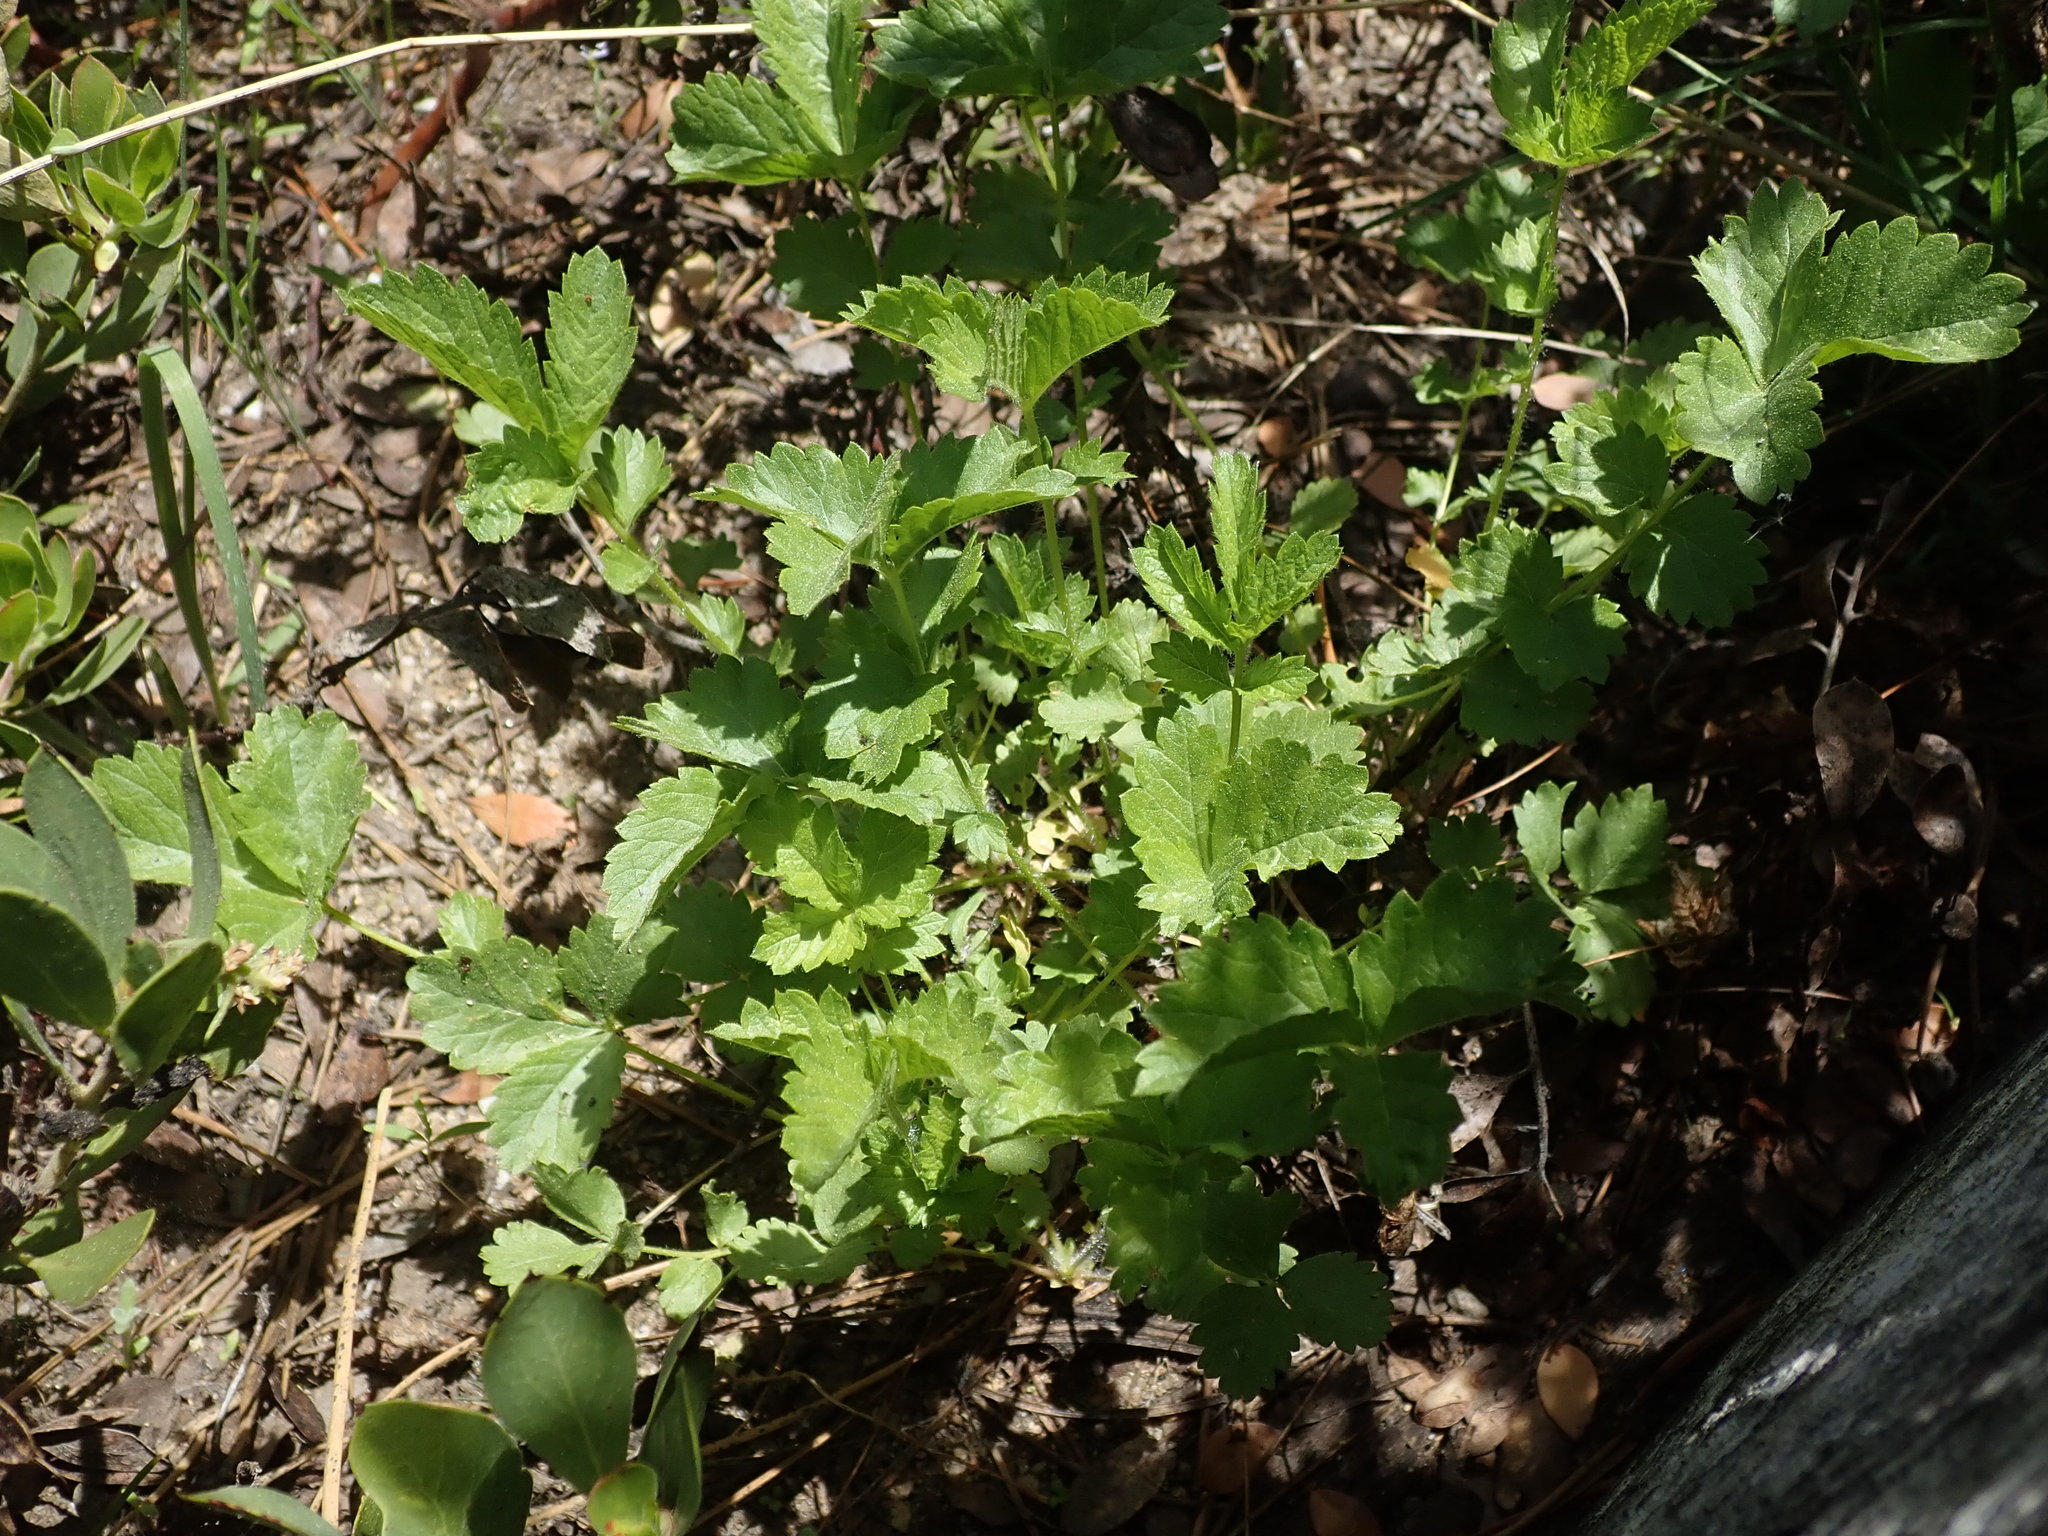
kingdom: Plantae
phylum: Tracheophyta
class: Magnoliopsida
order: Rosales
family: Rosaceae
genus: Drymocallis
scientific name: Drymocallis glandulosa
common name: Sticky cinquefoil
